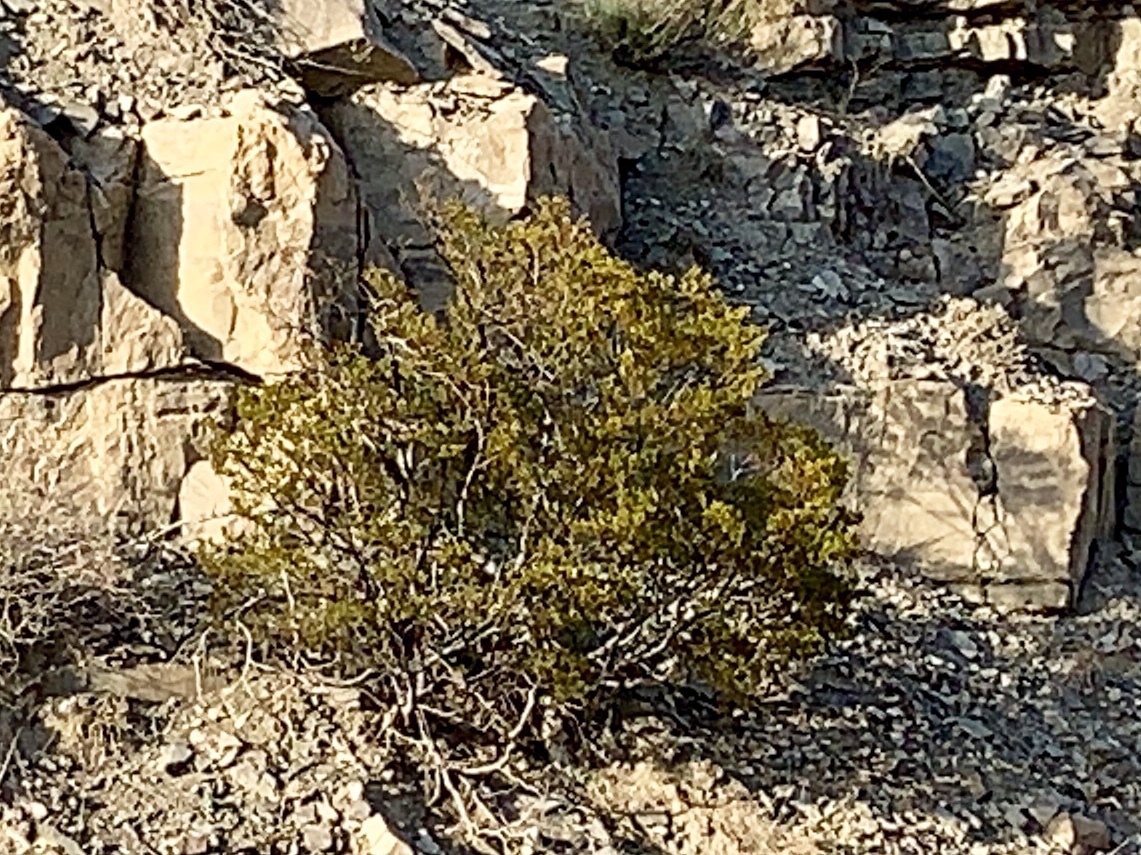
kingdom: Plantae
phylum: Tracheophyta
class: Magnoliopsida
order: Zygophyllales
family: Zygophyllaceae
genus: Larrea
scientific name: Larrea tridentata
